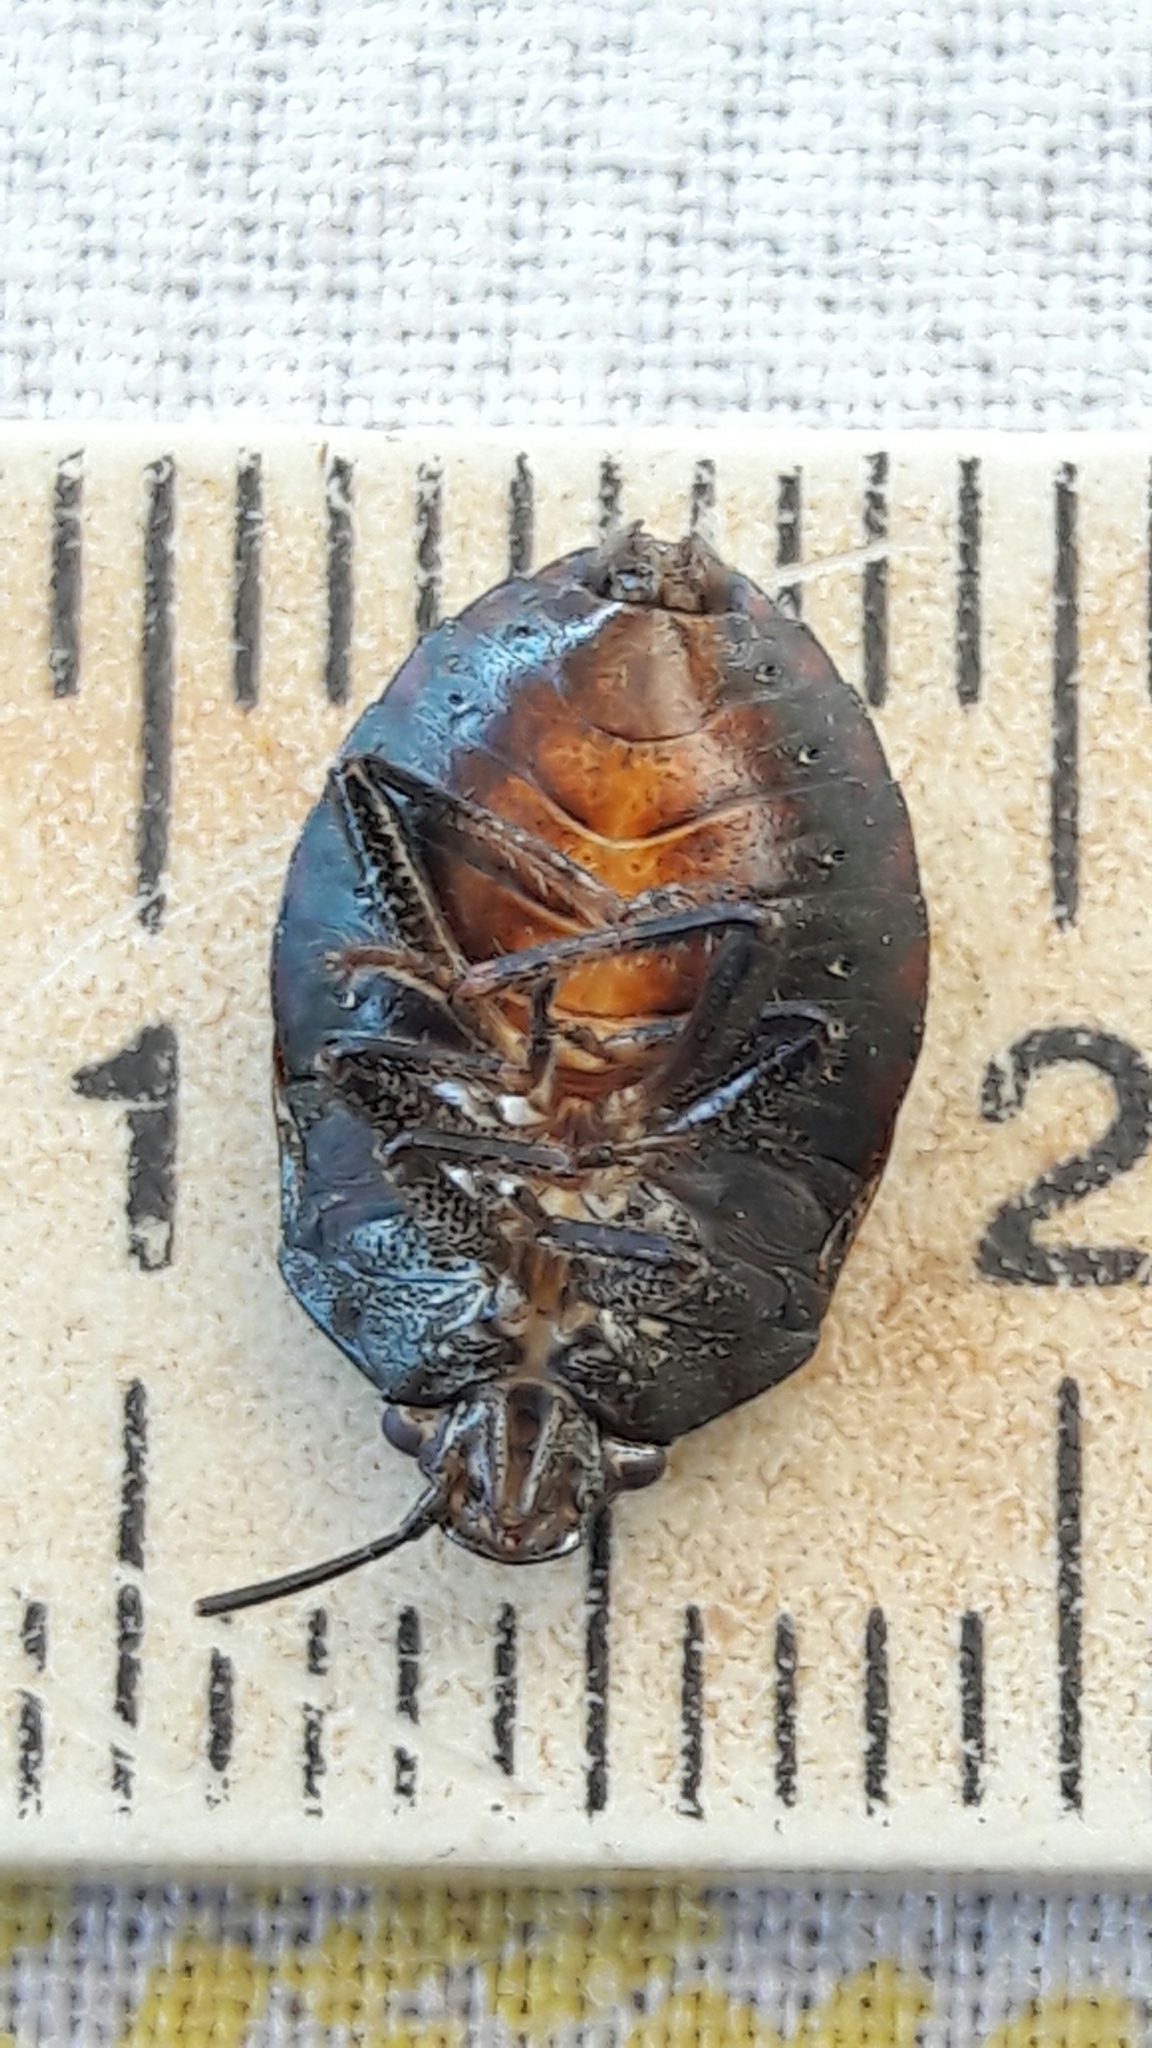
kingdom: Animalia
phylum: Arthropoda
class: Insecta
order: Hemiptera
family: Pentatomidae
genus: Antiteuchus
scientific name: Antiteuchus tripterus
